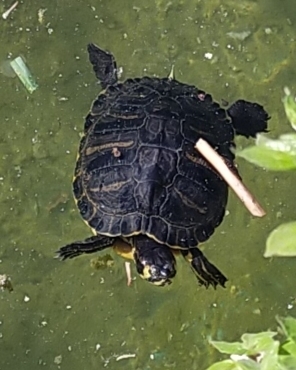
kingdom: Animalia
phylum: Chordata
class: Testudines
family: Emydidae
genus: Trachemys
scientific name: Trachemys scripta
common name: Slider
